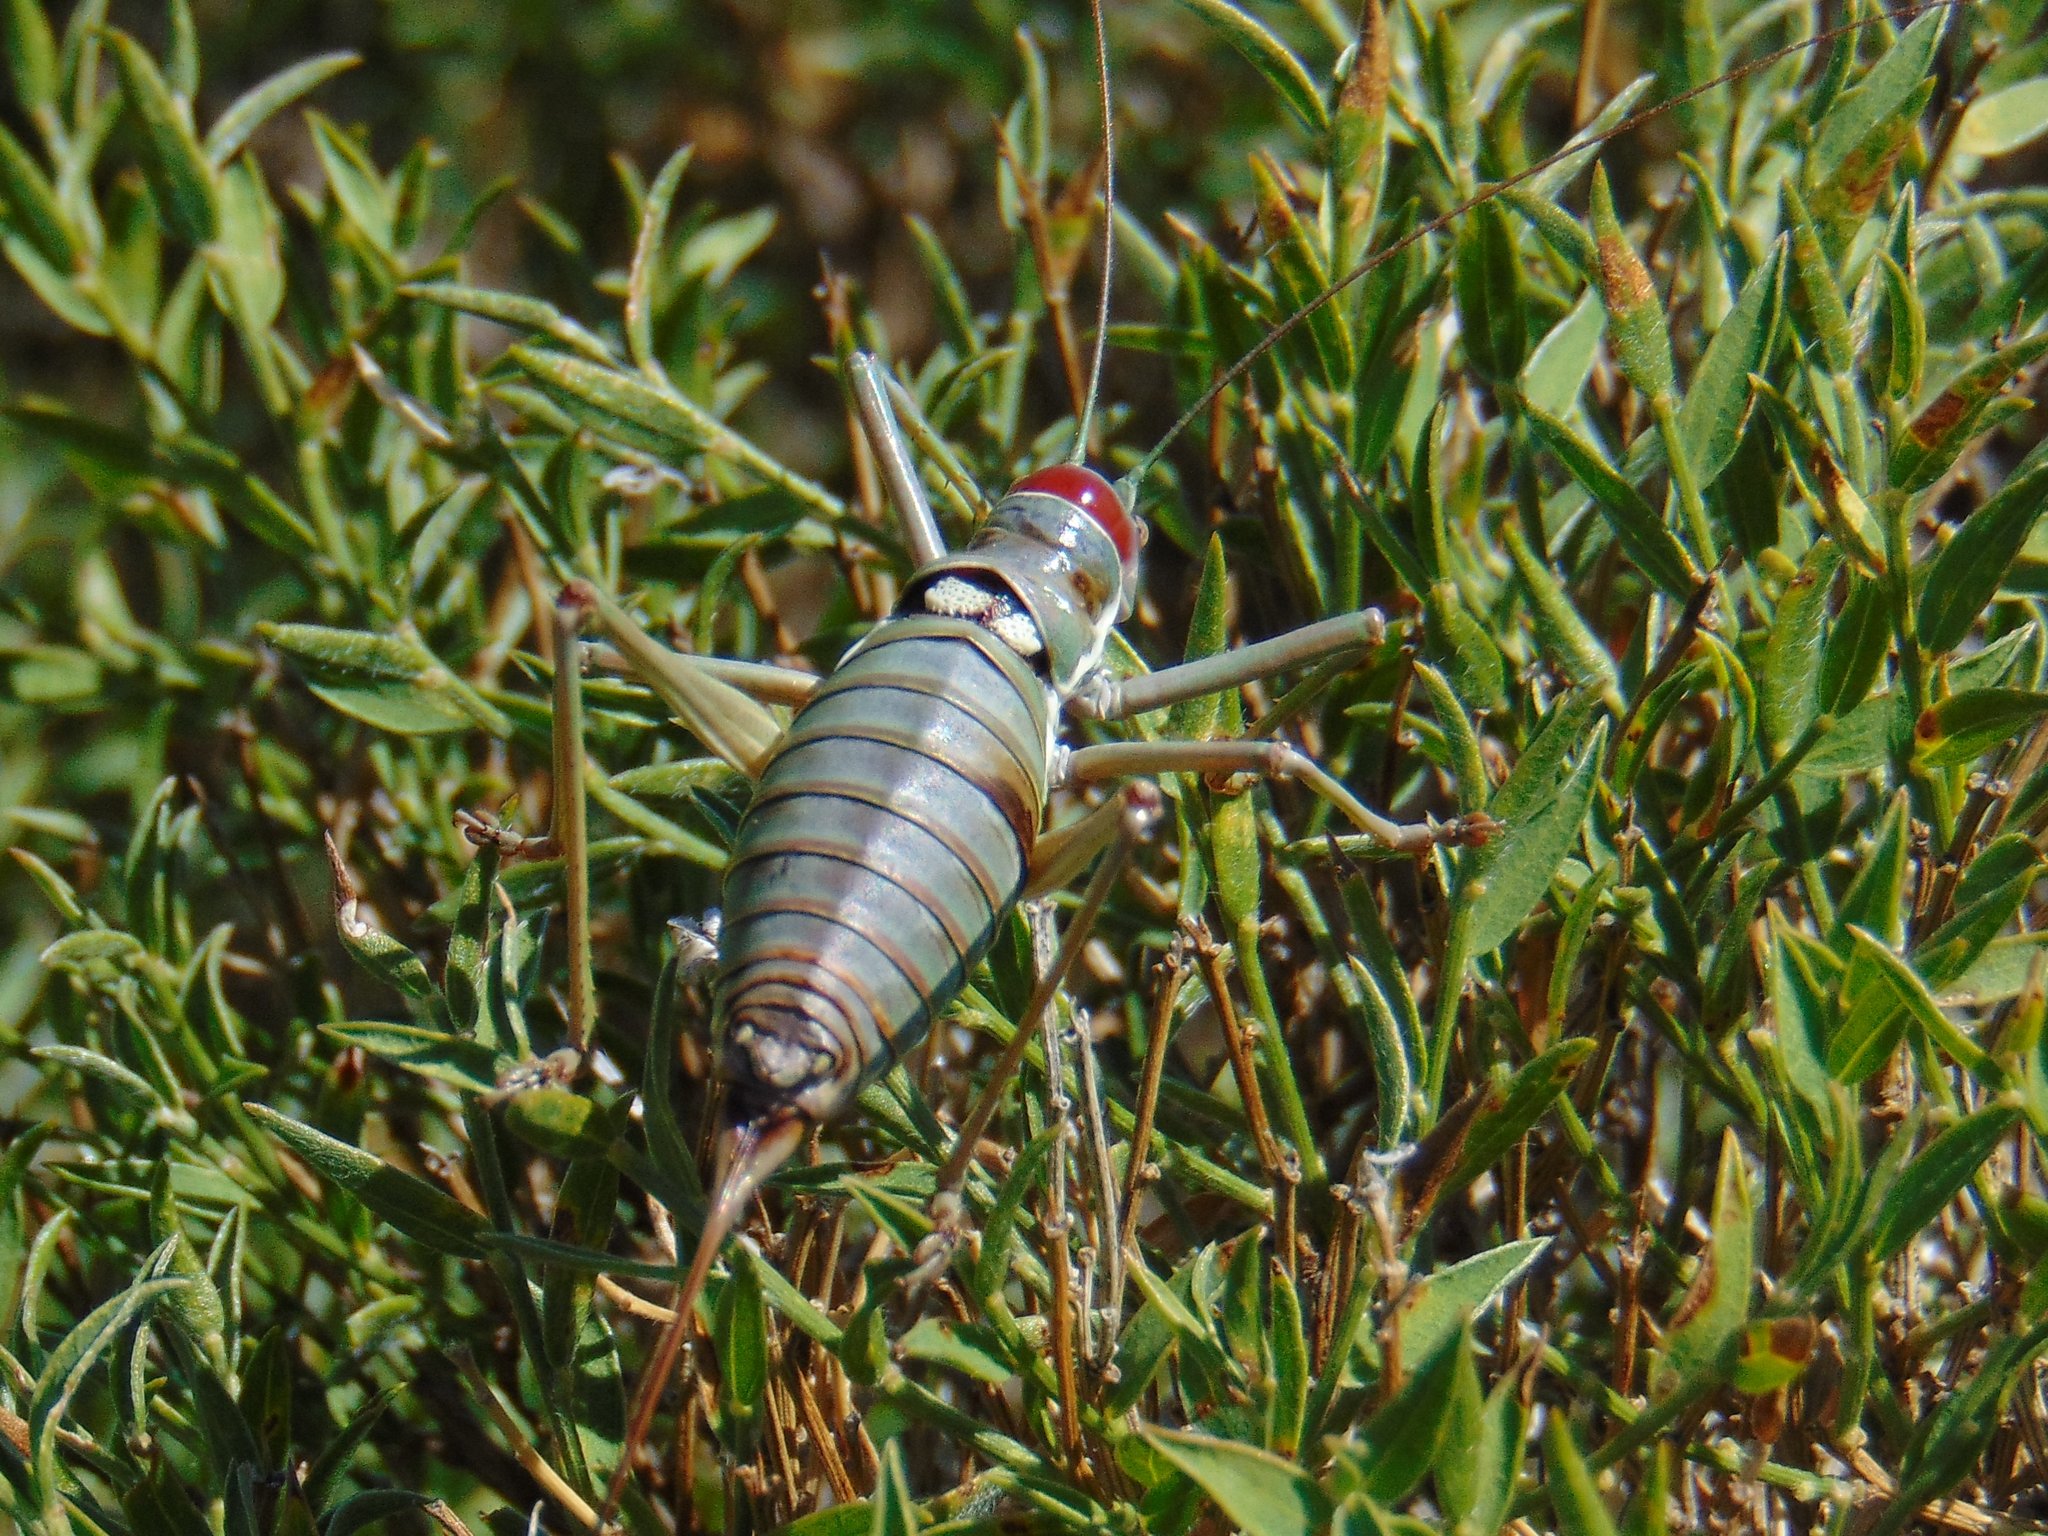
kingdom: Animalia
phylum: Arthropoda
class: Insecta
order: Orthoptera
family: Tettigoniidae
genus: Dinarippiger
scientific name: Dinarippiger discoidalis
